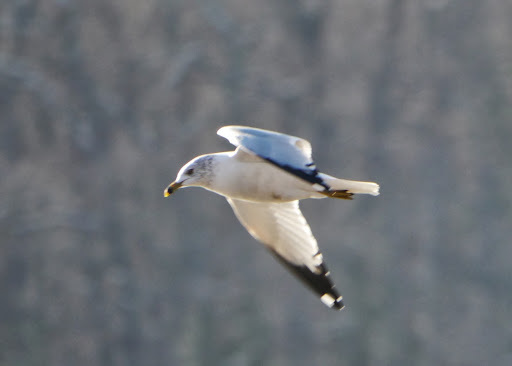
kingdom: Animalia
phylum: Chordata
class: Aves
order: Charadriiformes
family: Laridae
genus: Larus
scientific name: Larus delawarensis
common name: Ring-billed gull
